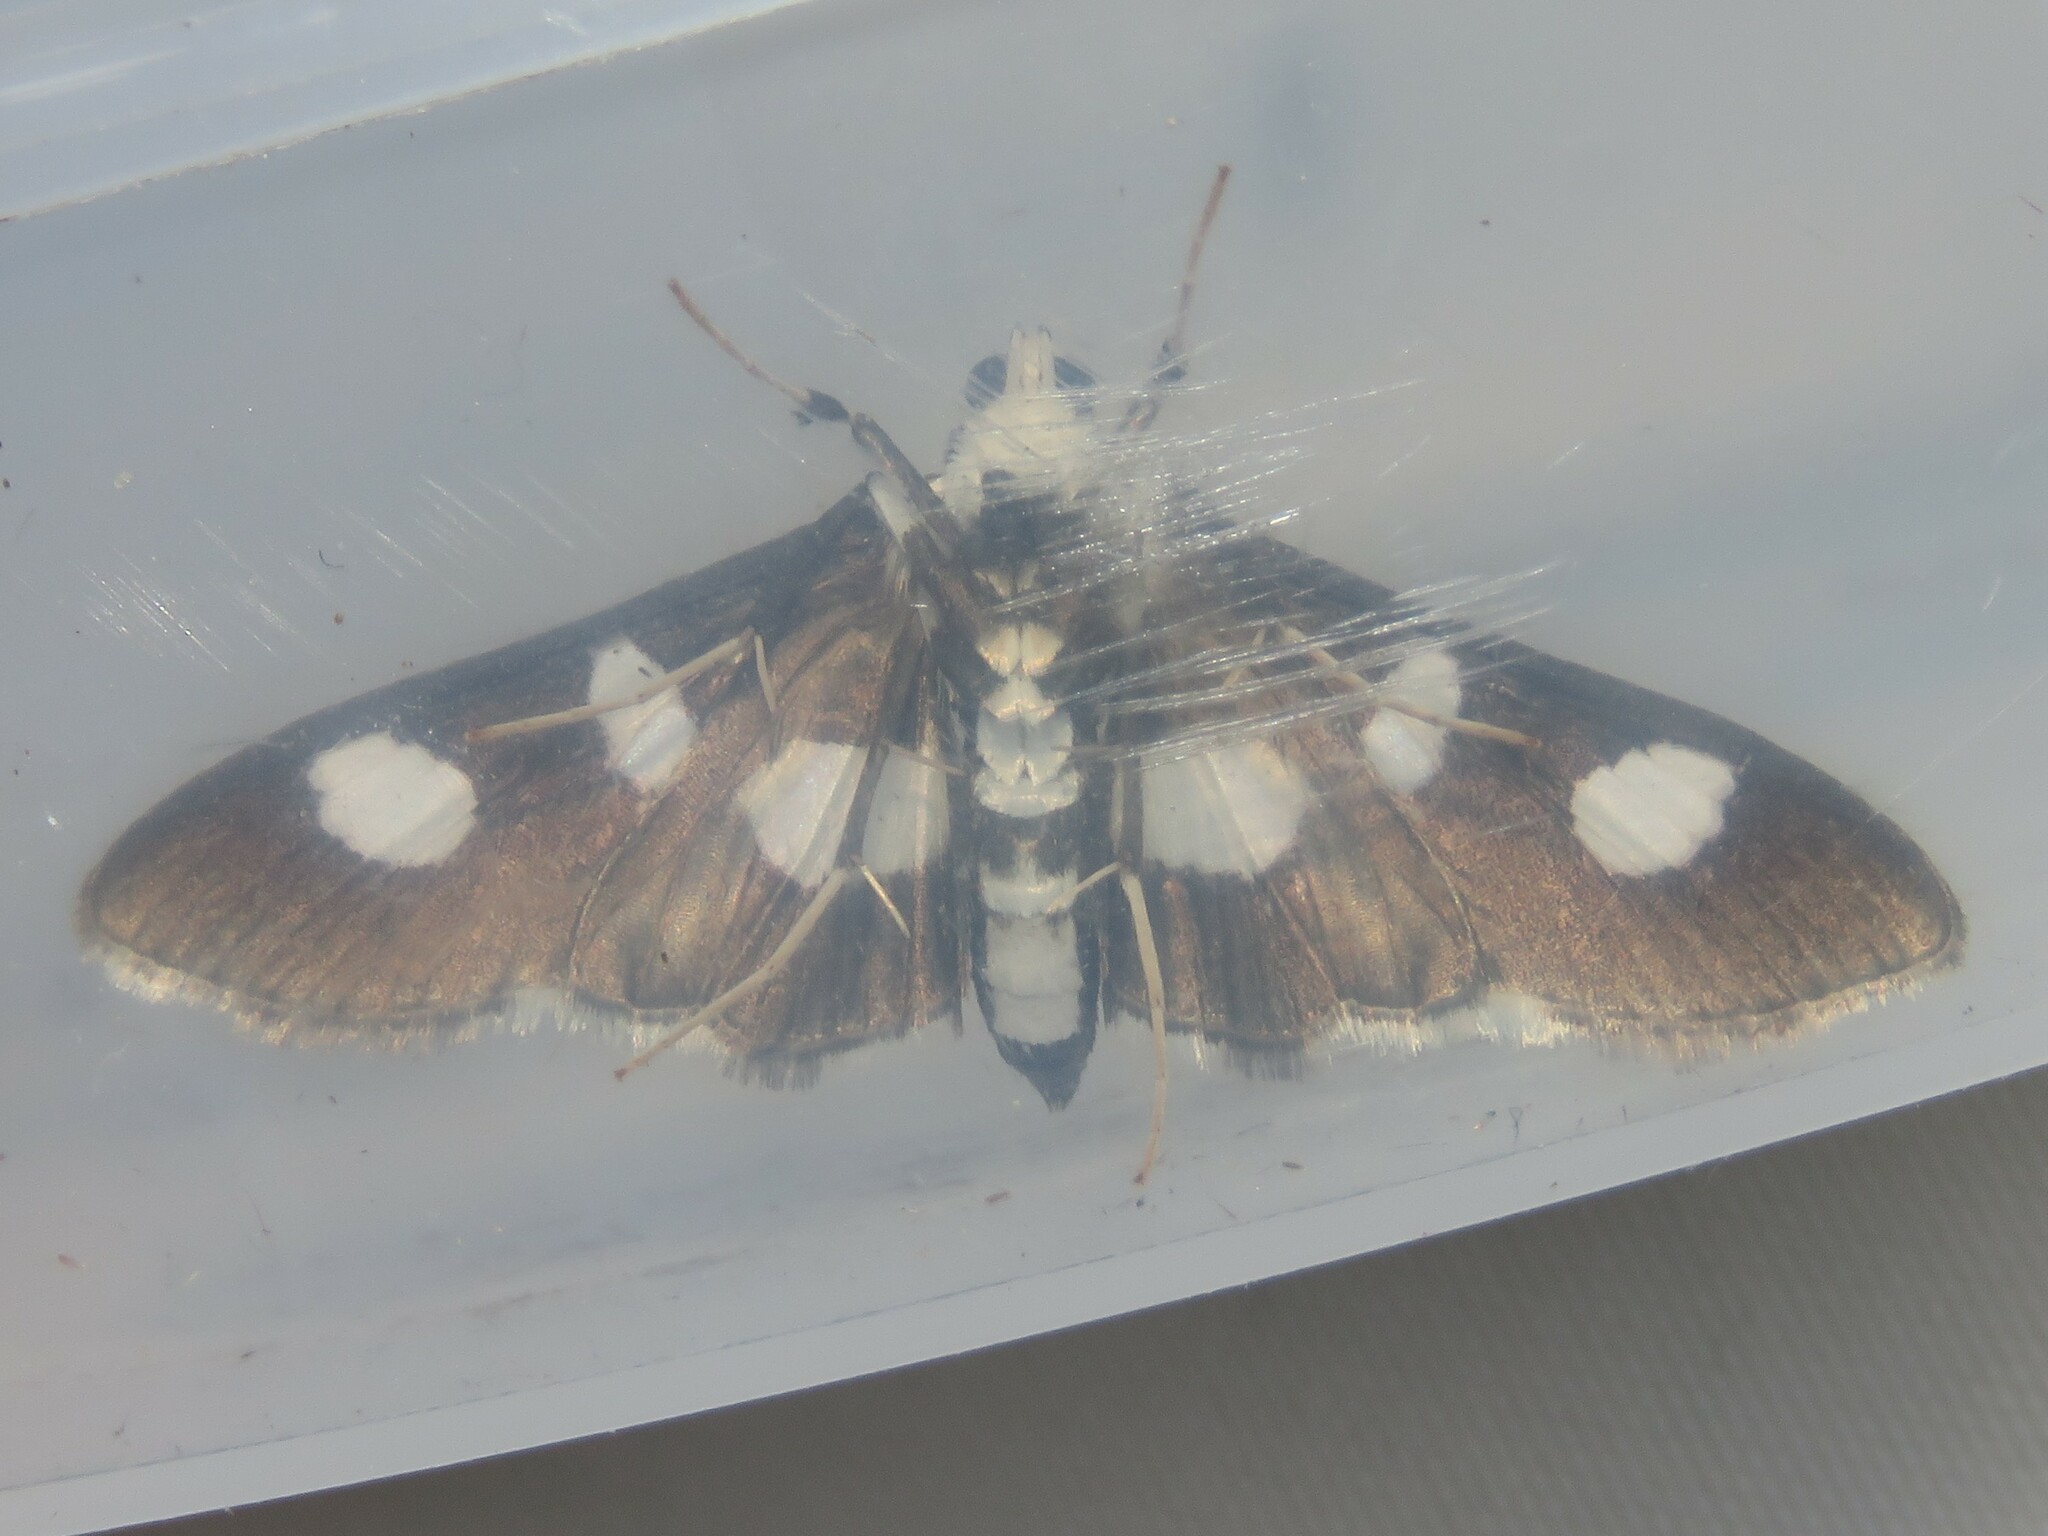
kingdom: Animalia
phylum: Arthropoda
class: Insecta
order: Lepidoptera
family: Crambidae
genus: Desmia
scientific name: Desmia funeralis
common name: Grape leaf folder moth
